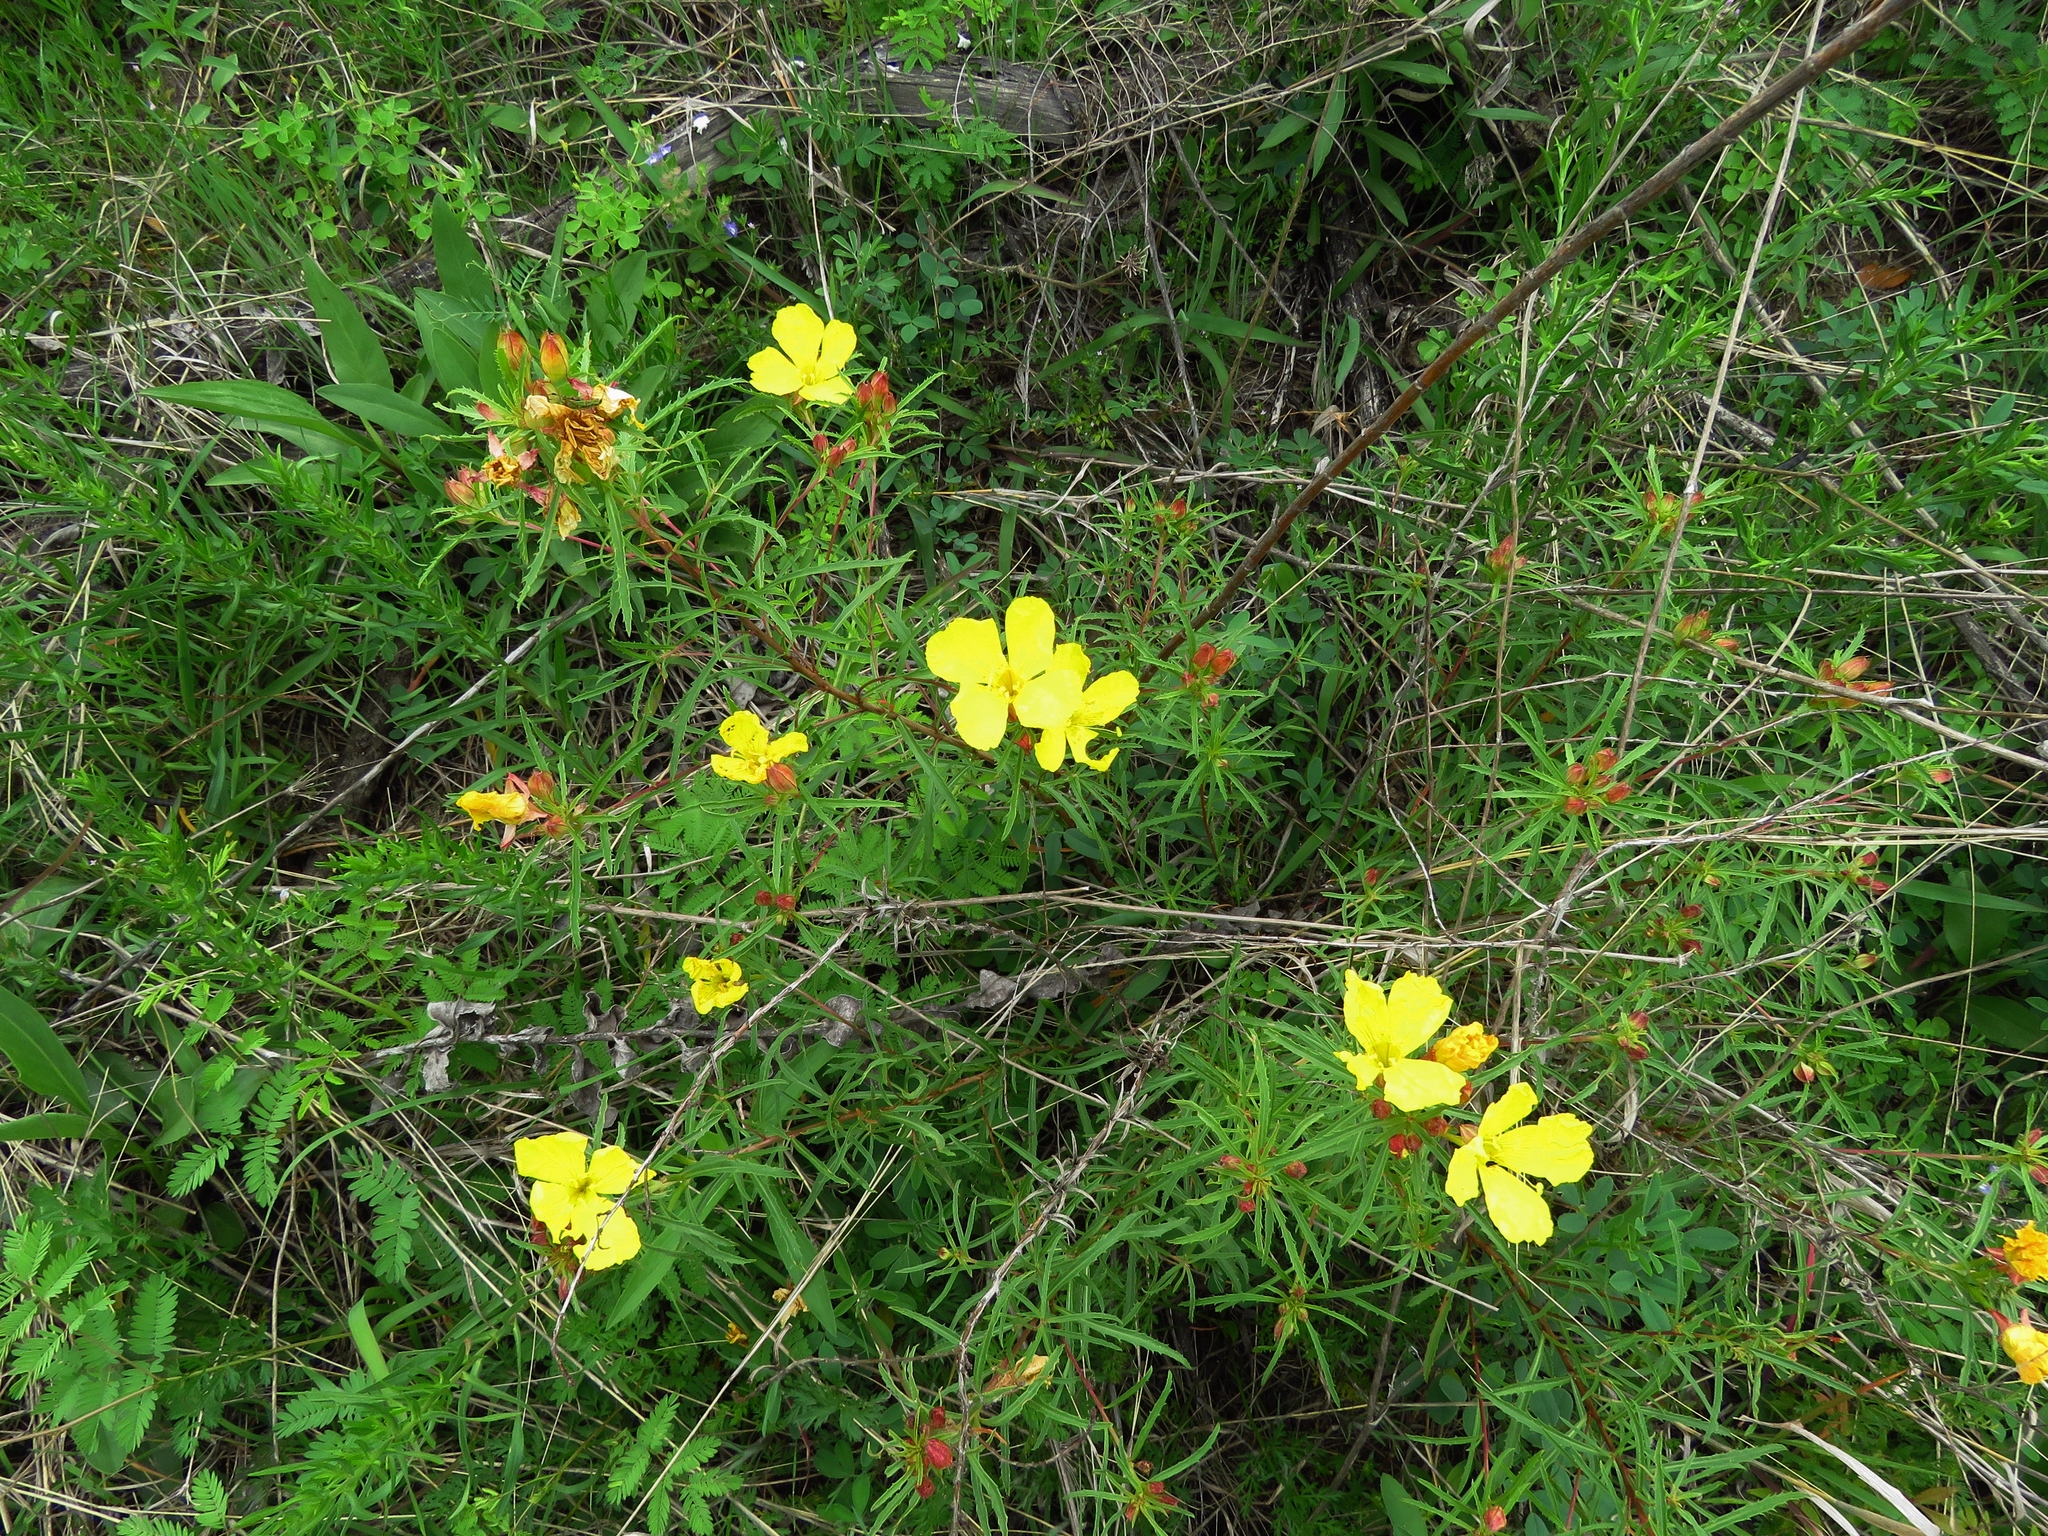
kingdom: Plantae
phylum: Tracheophyta
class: Magnoliopsida
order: Myrtales
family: Onagraceae
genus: Oenothera
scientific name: Oenothera
